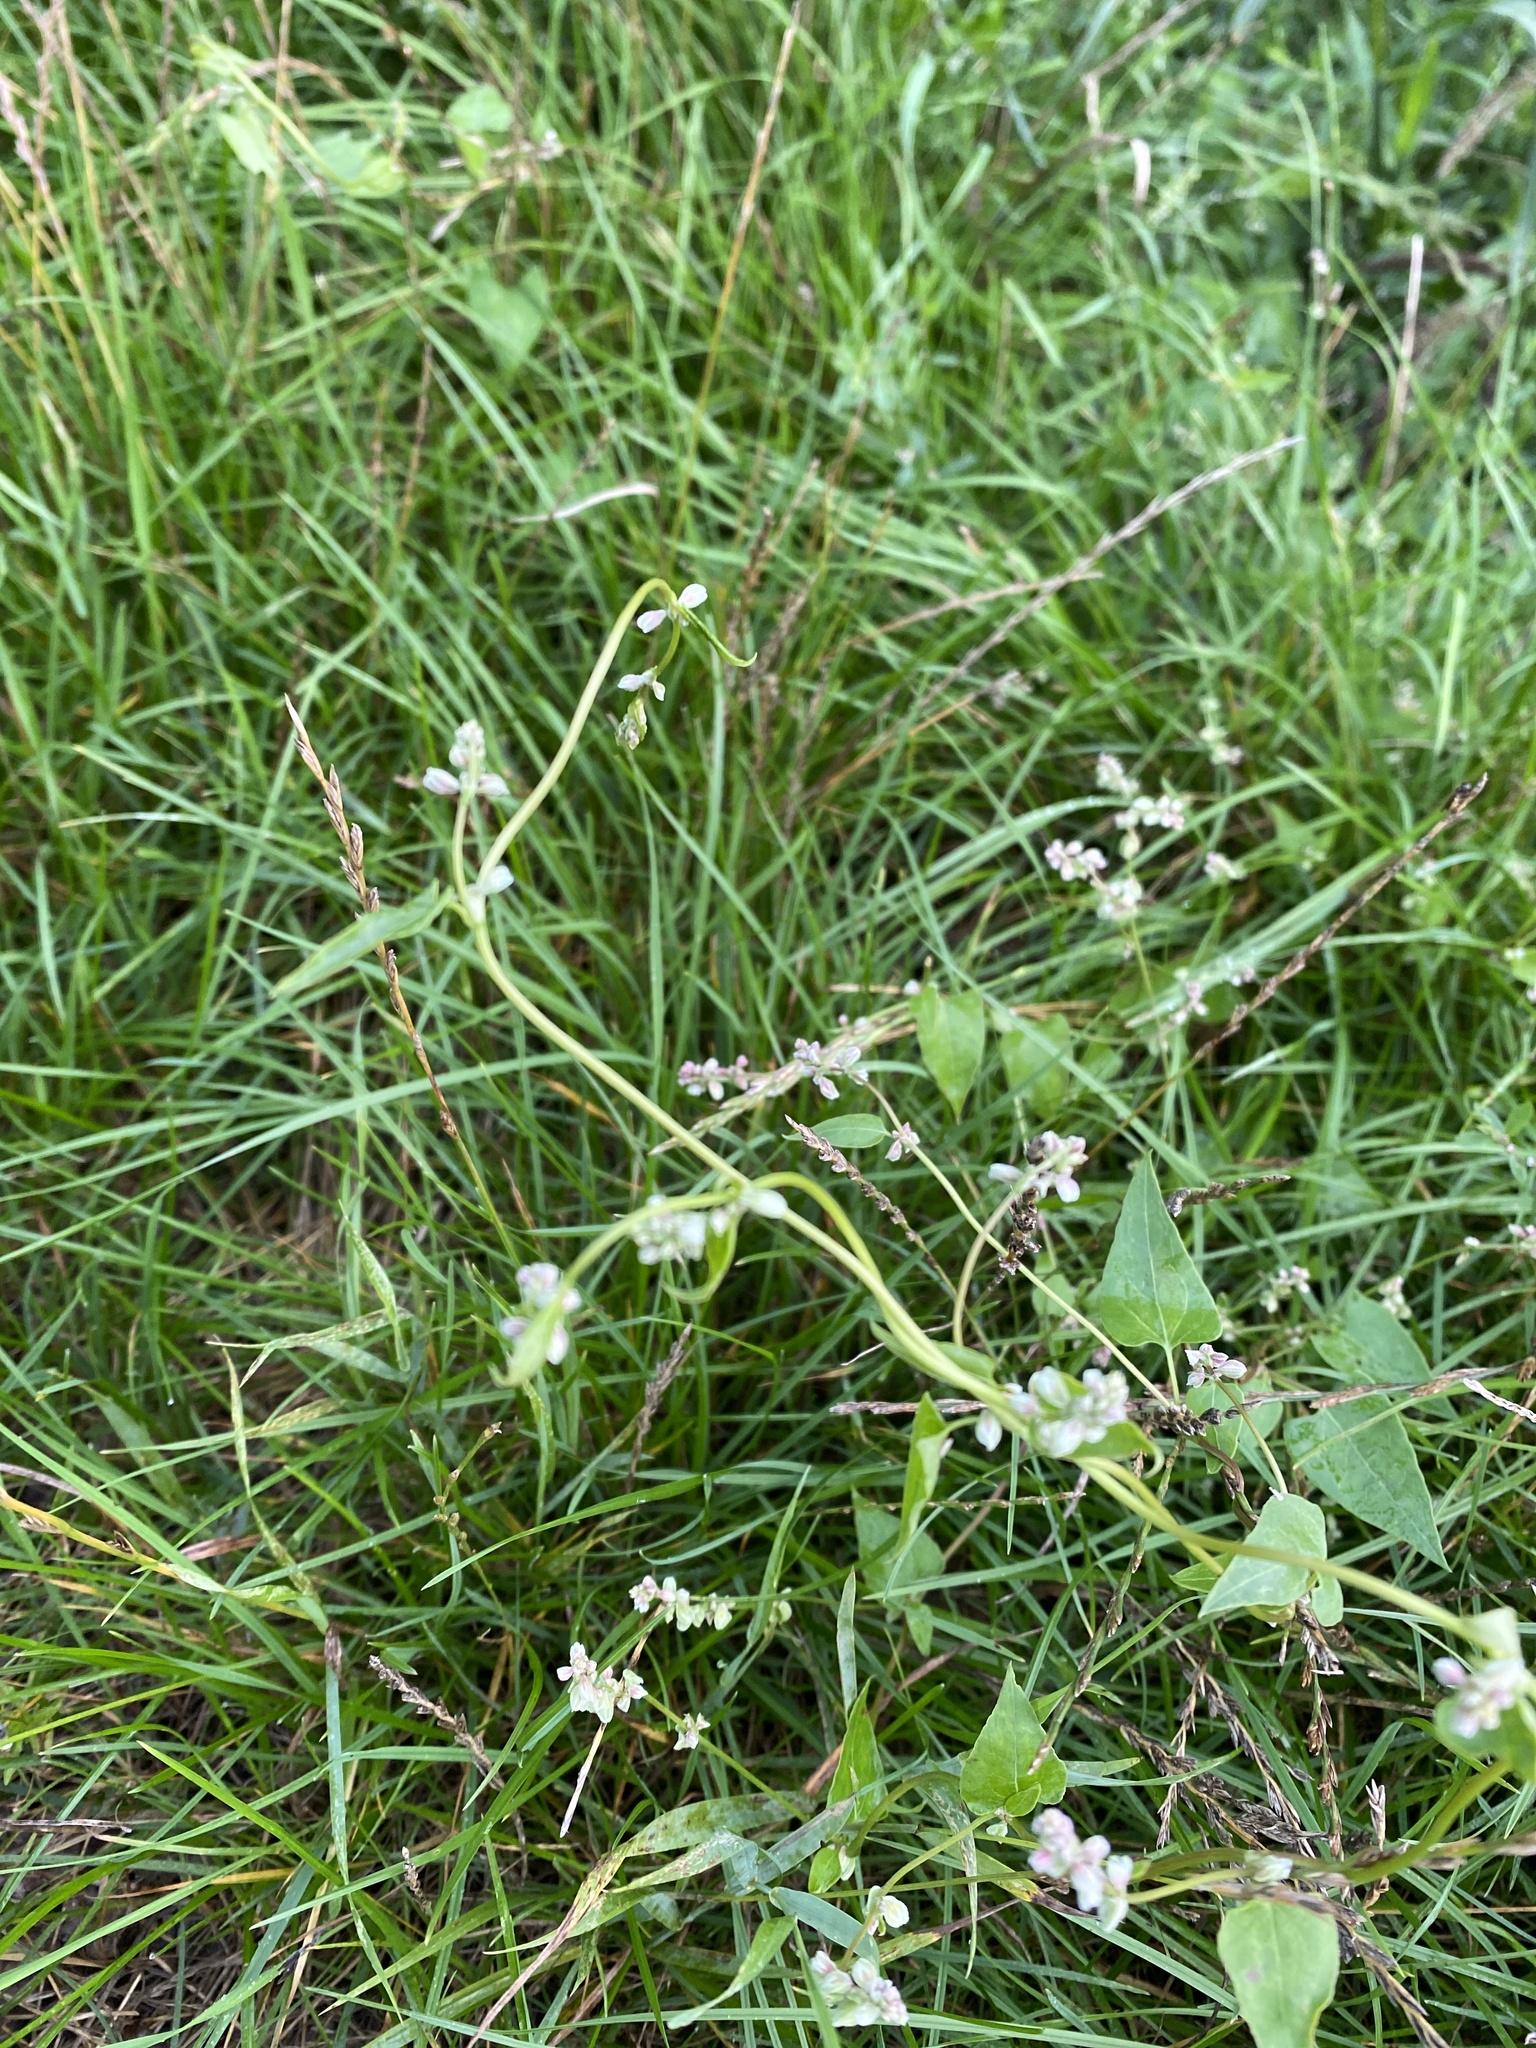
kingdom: Plantae
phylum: Tracheophyta
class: Magnoliopsida
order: Caryophyllales
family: Polygonaceae
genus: Fallopia
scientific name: Fallopia convolvulus
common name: Black bindweed
